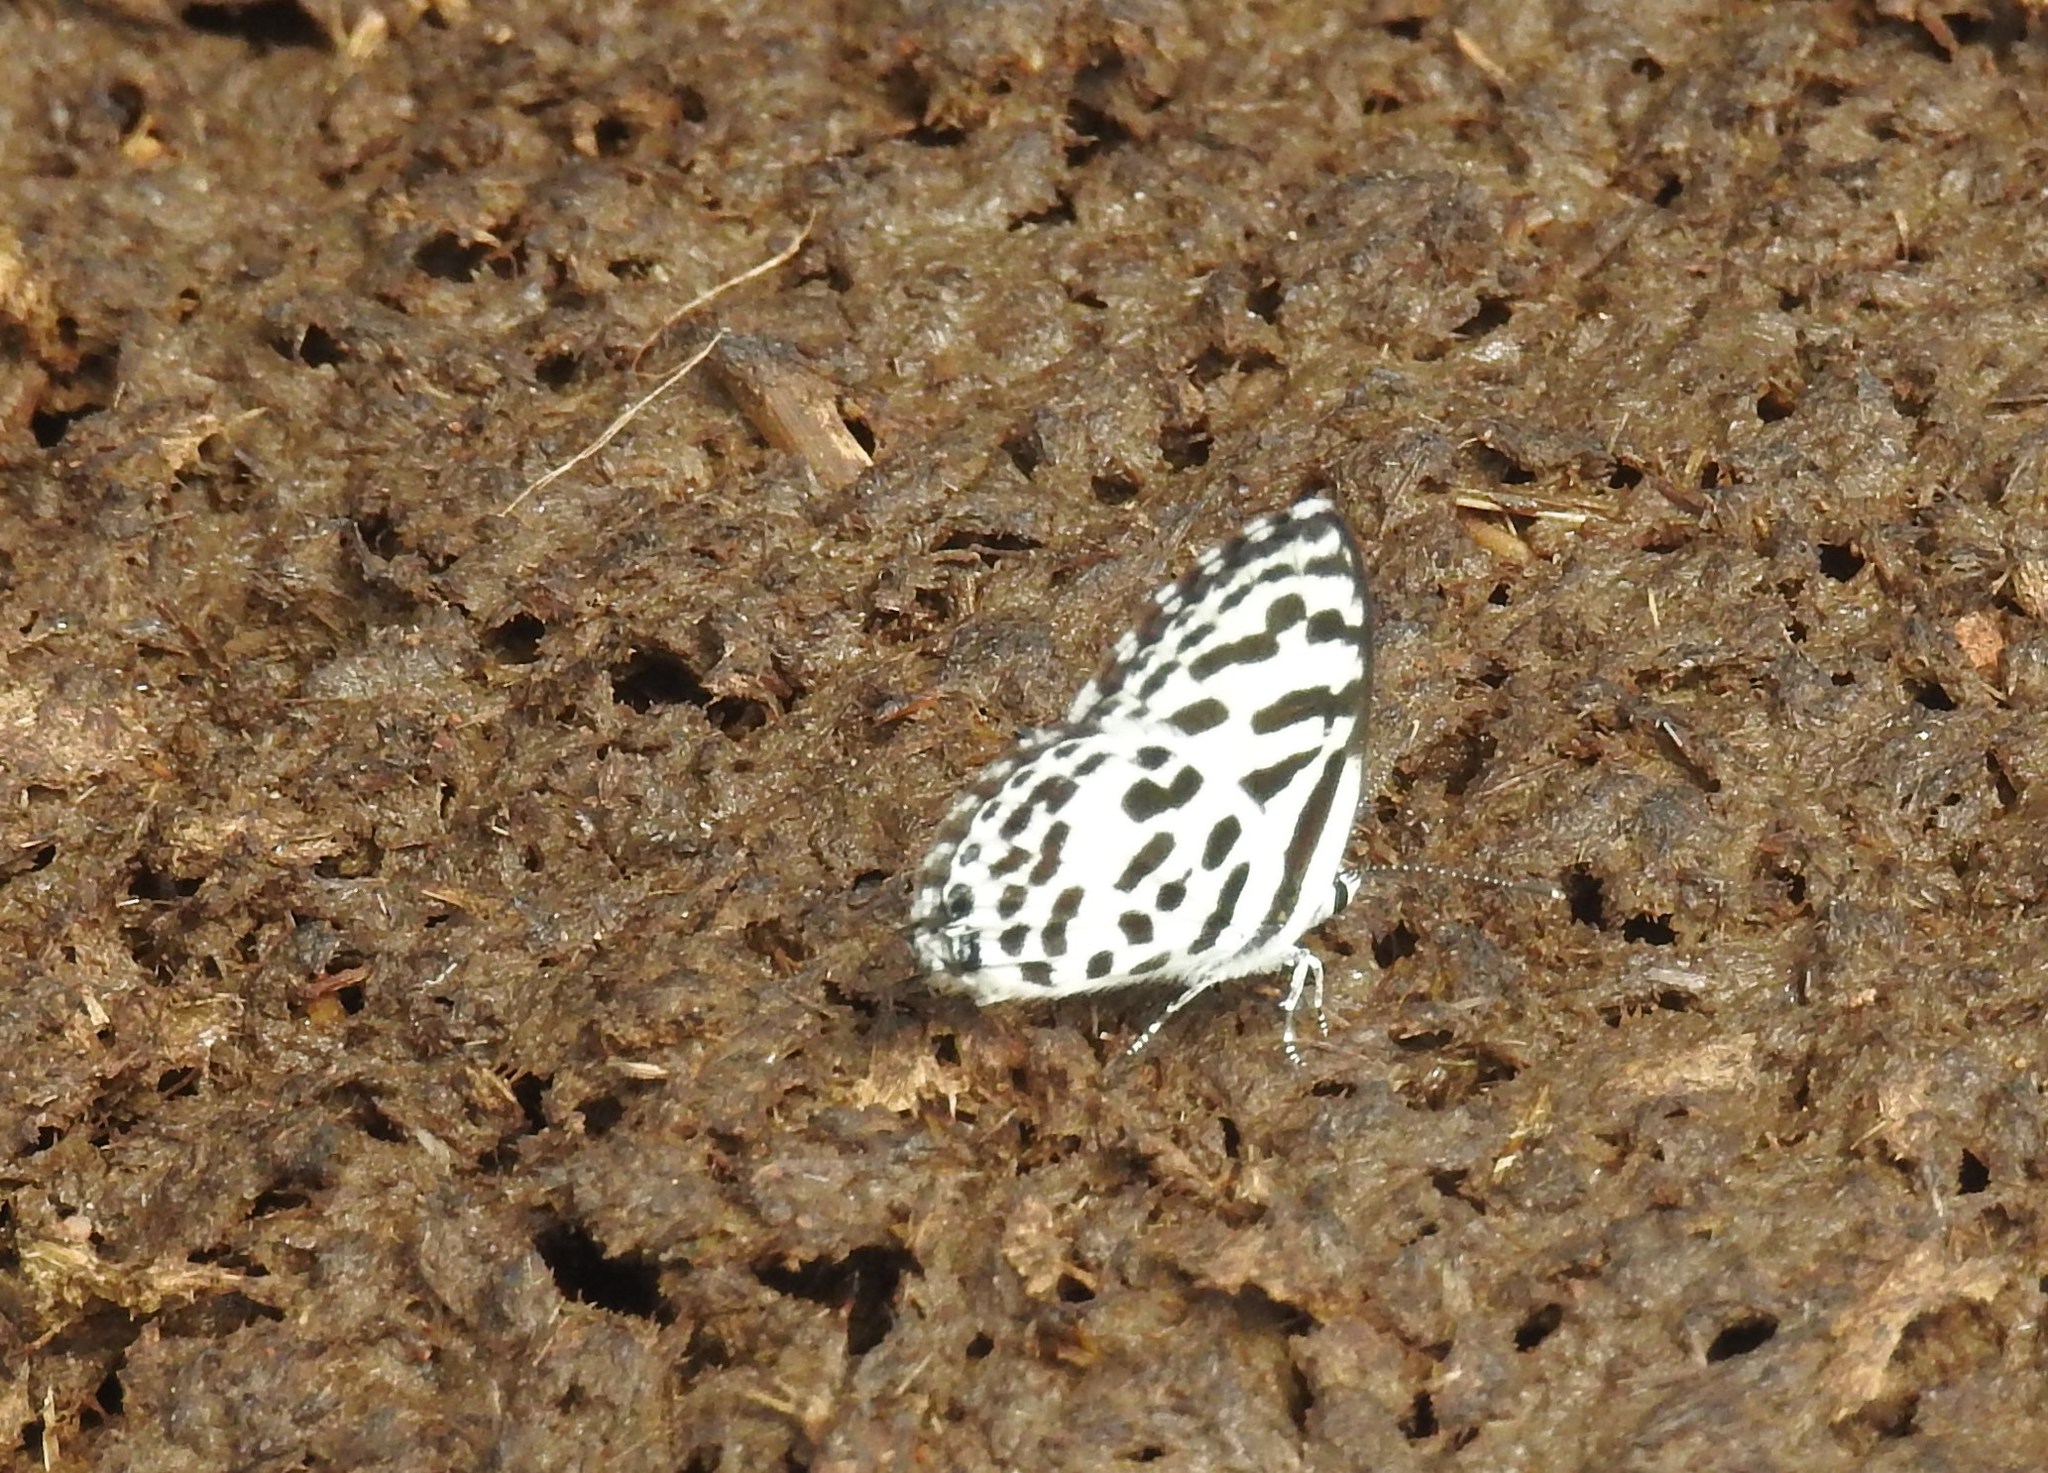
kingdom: Animalia
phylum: Arthropoda
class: Insecta
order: Lepidoptera
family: Lycaenidae
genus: Castalius
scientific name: Castalius rosimon
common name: Common pierrot
